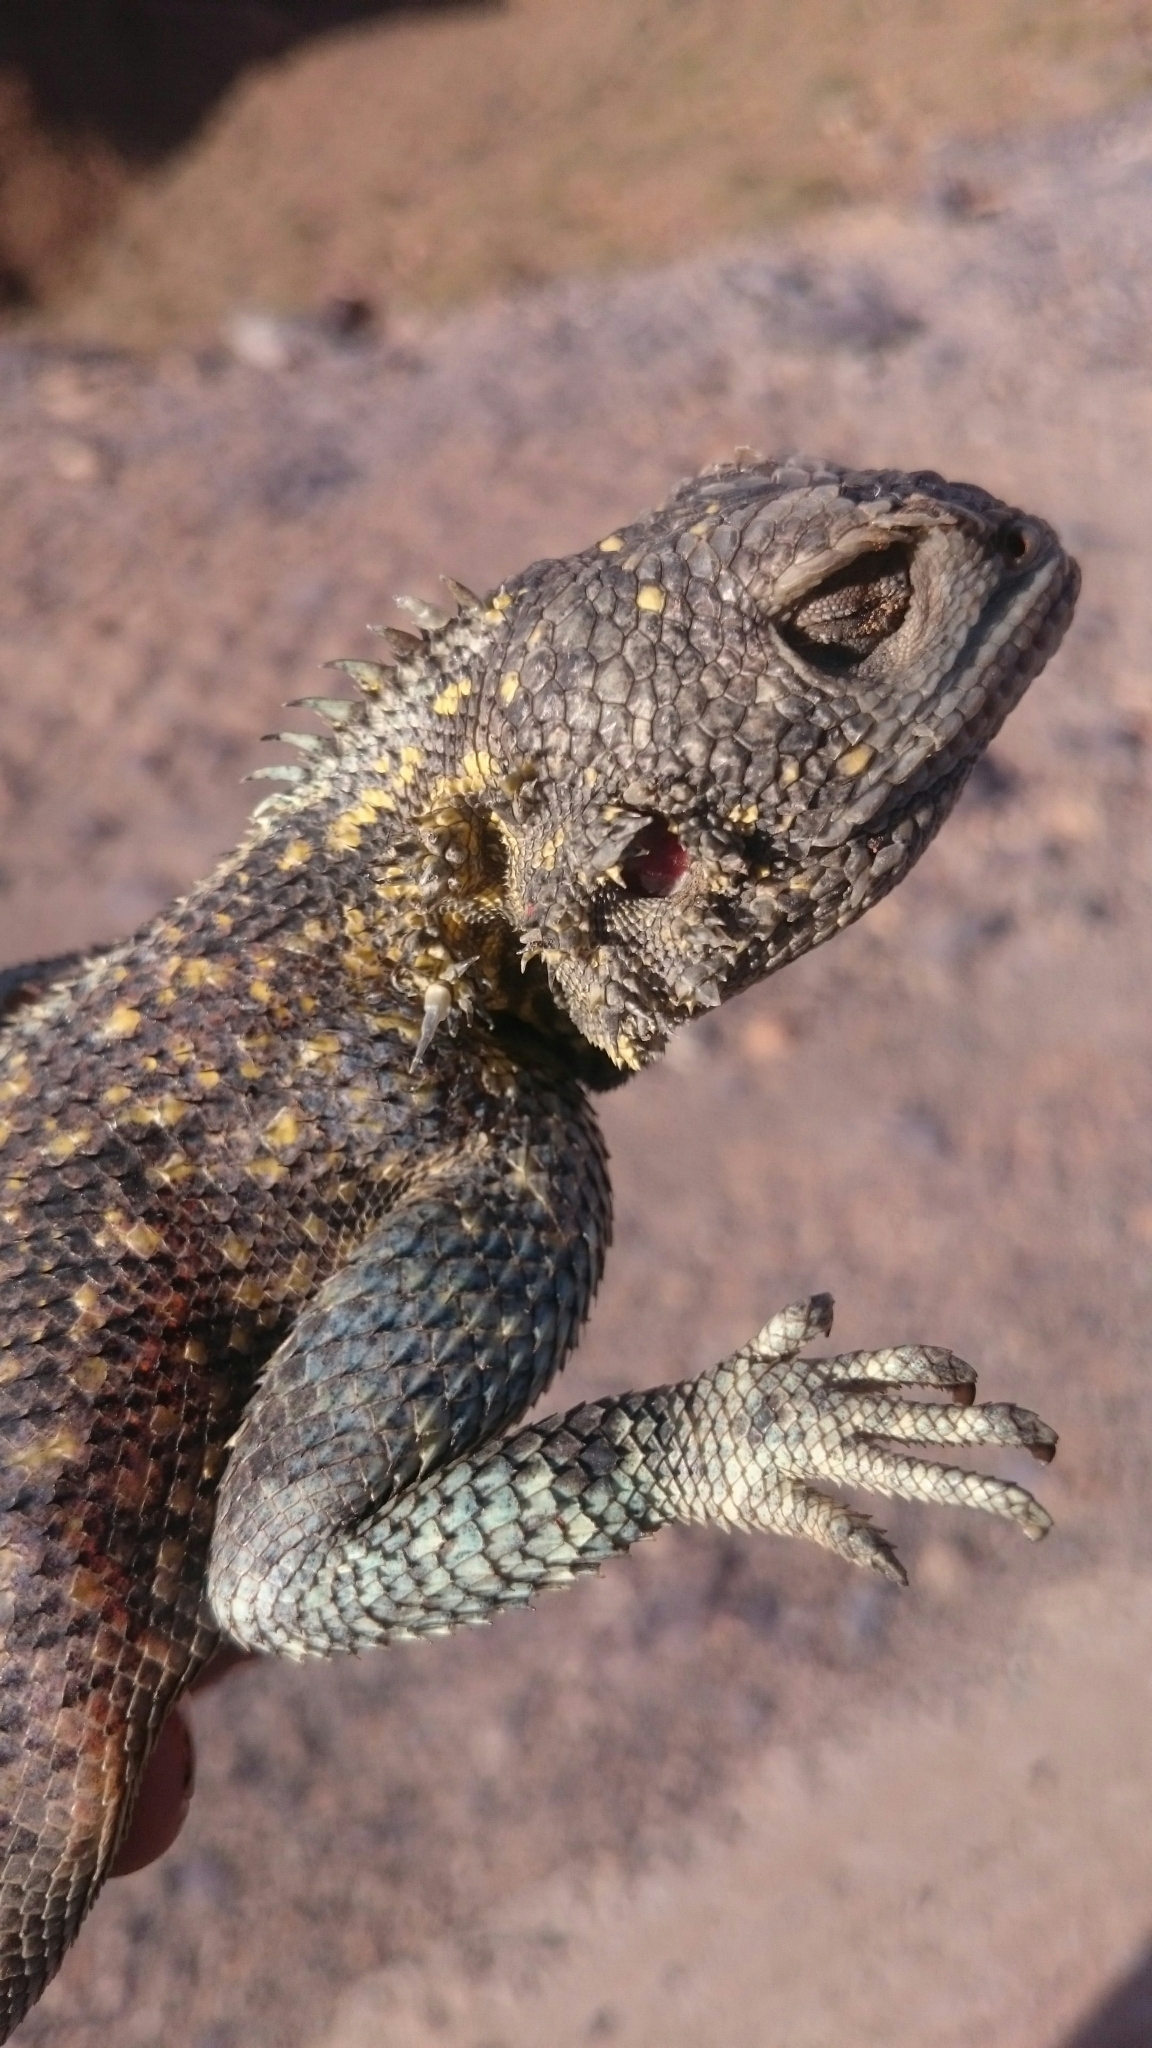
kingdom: Animalia
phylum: Chordata
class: Squamata
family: Agamidae
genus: Agama
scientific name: Agama impalearis
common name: Bibron's agama
